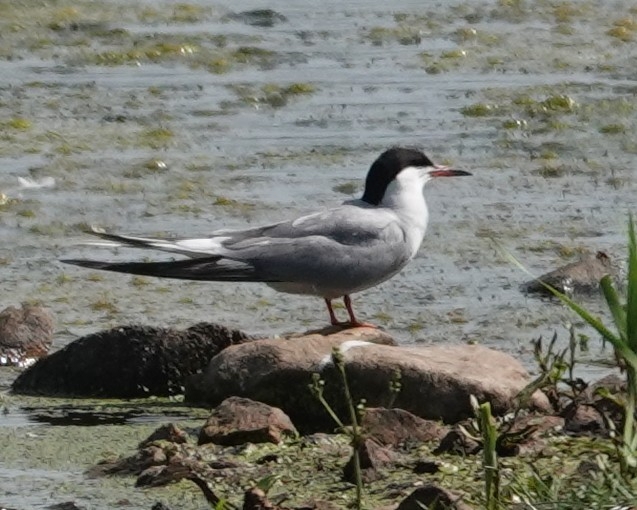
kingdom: Animalia
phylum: Chordata
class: Aves
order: Charadriiformes
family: Laridae
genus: Sterna
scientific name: Sterna hirundo
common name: Common tern
